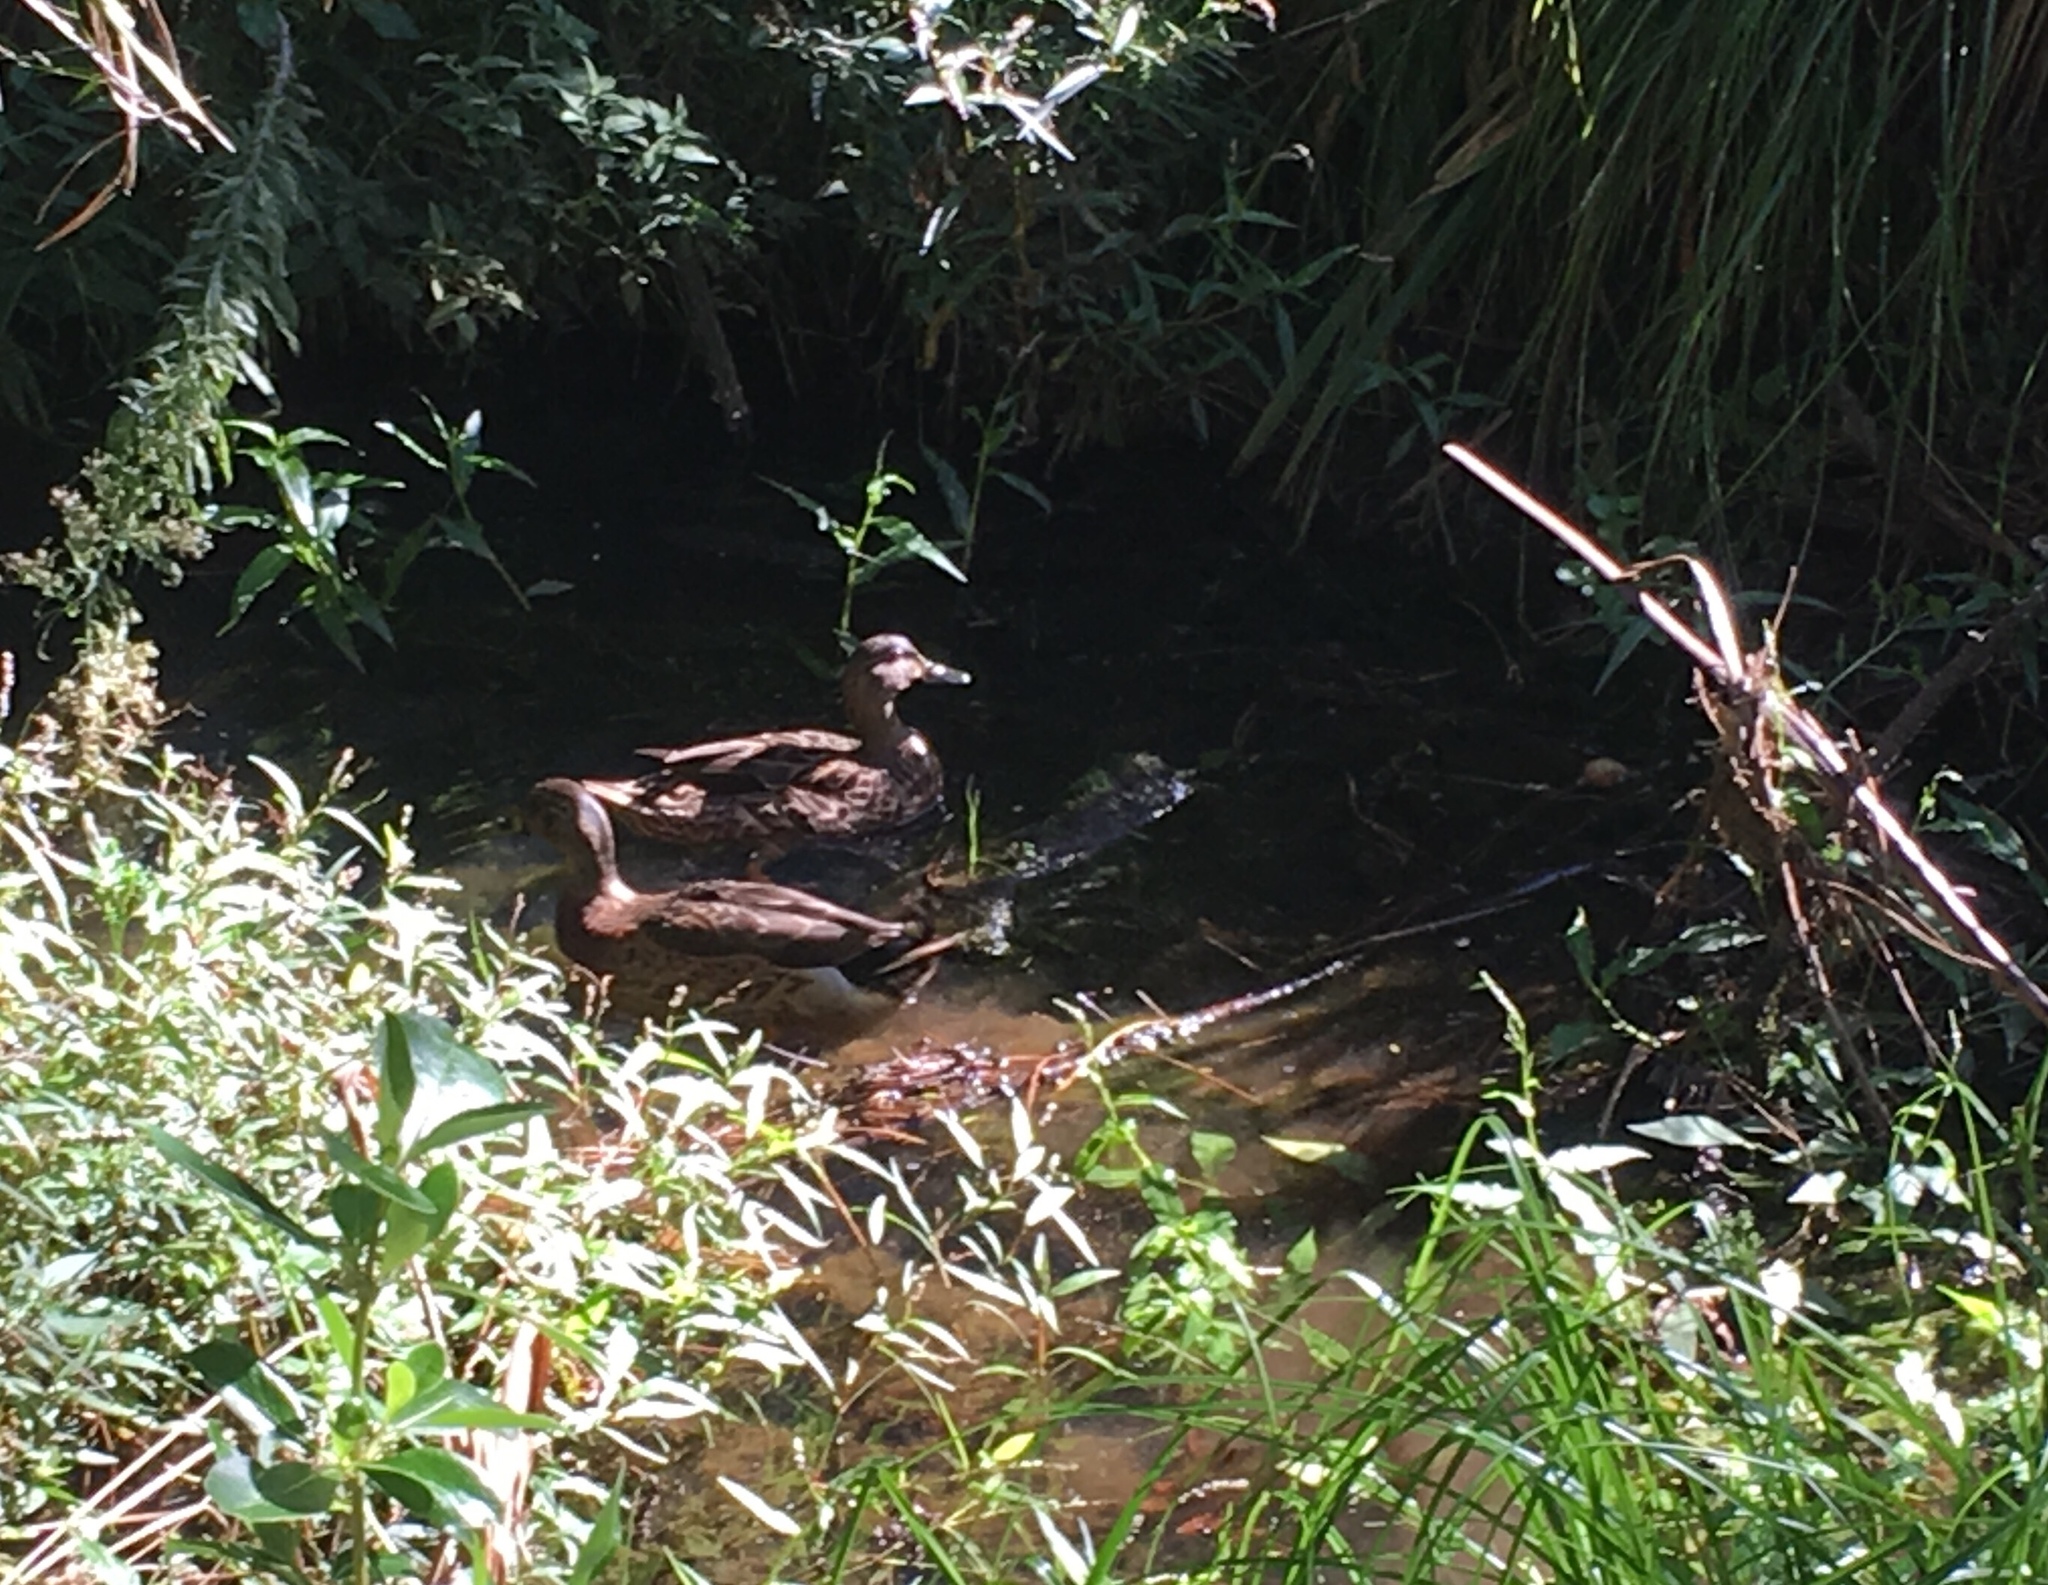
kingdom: Animalia
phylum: Chordata
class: Aves
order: Anseriformes
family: Anatidae
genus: Anas
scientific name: Anas
